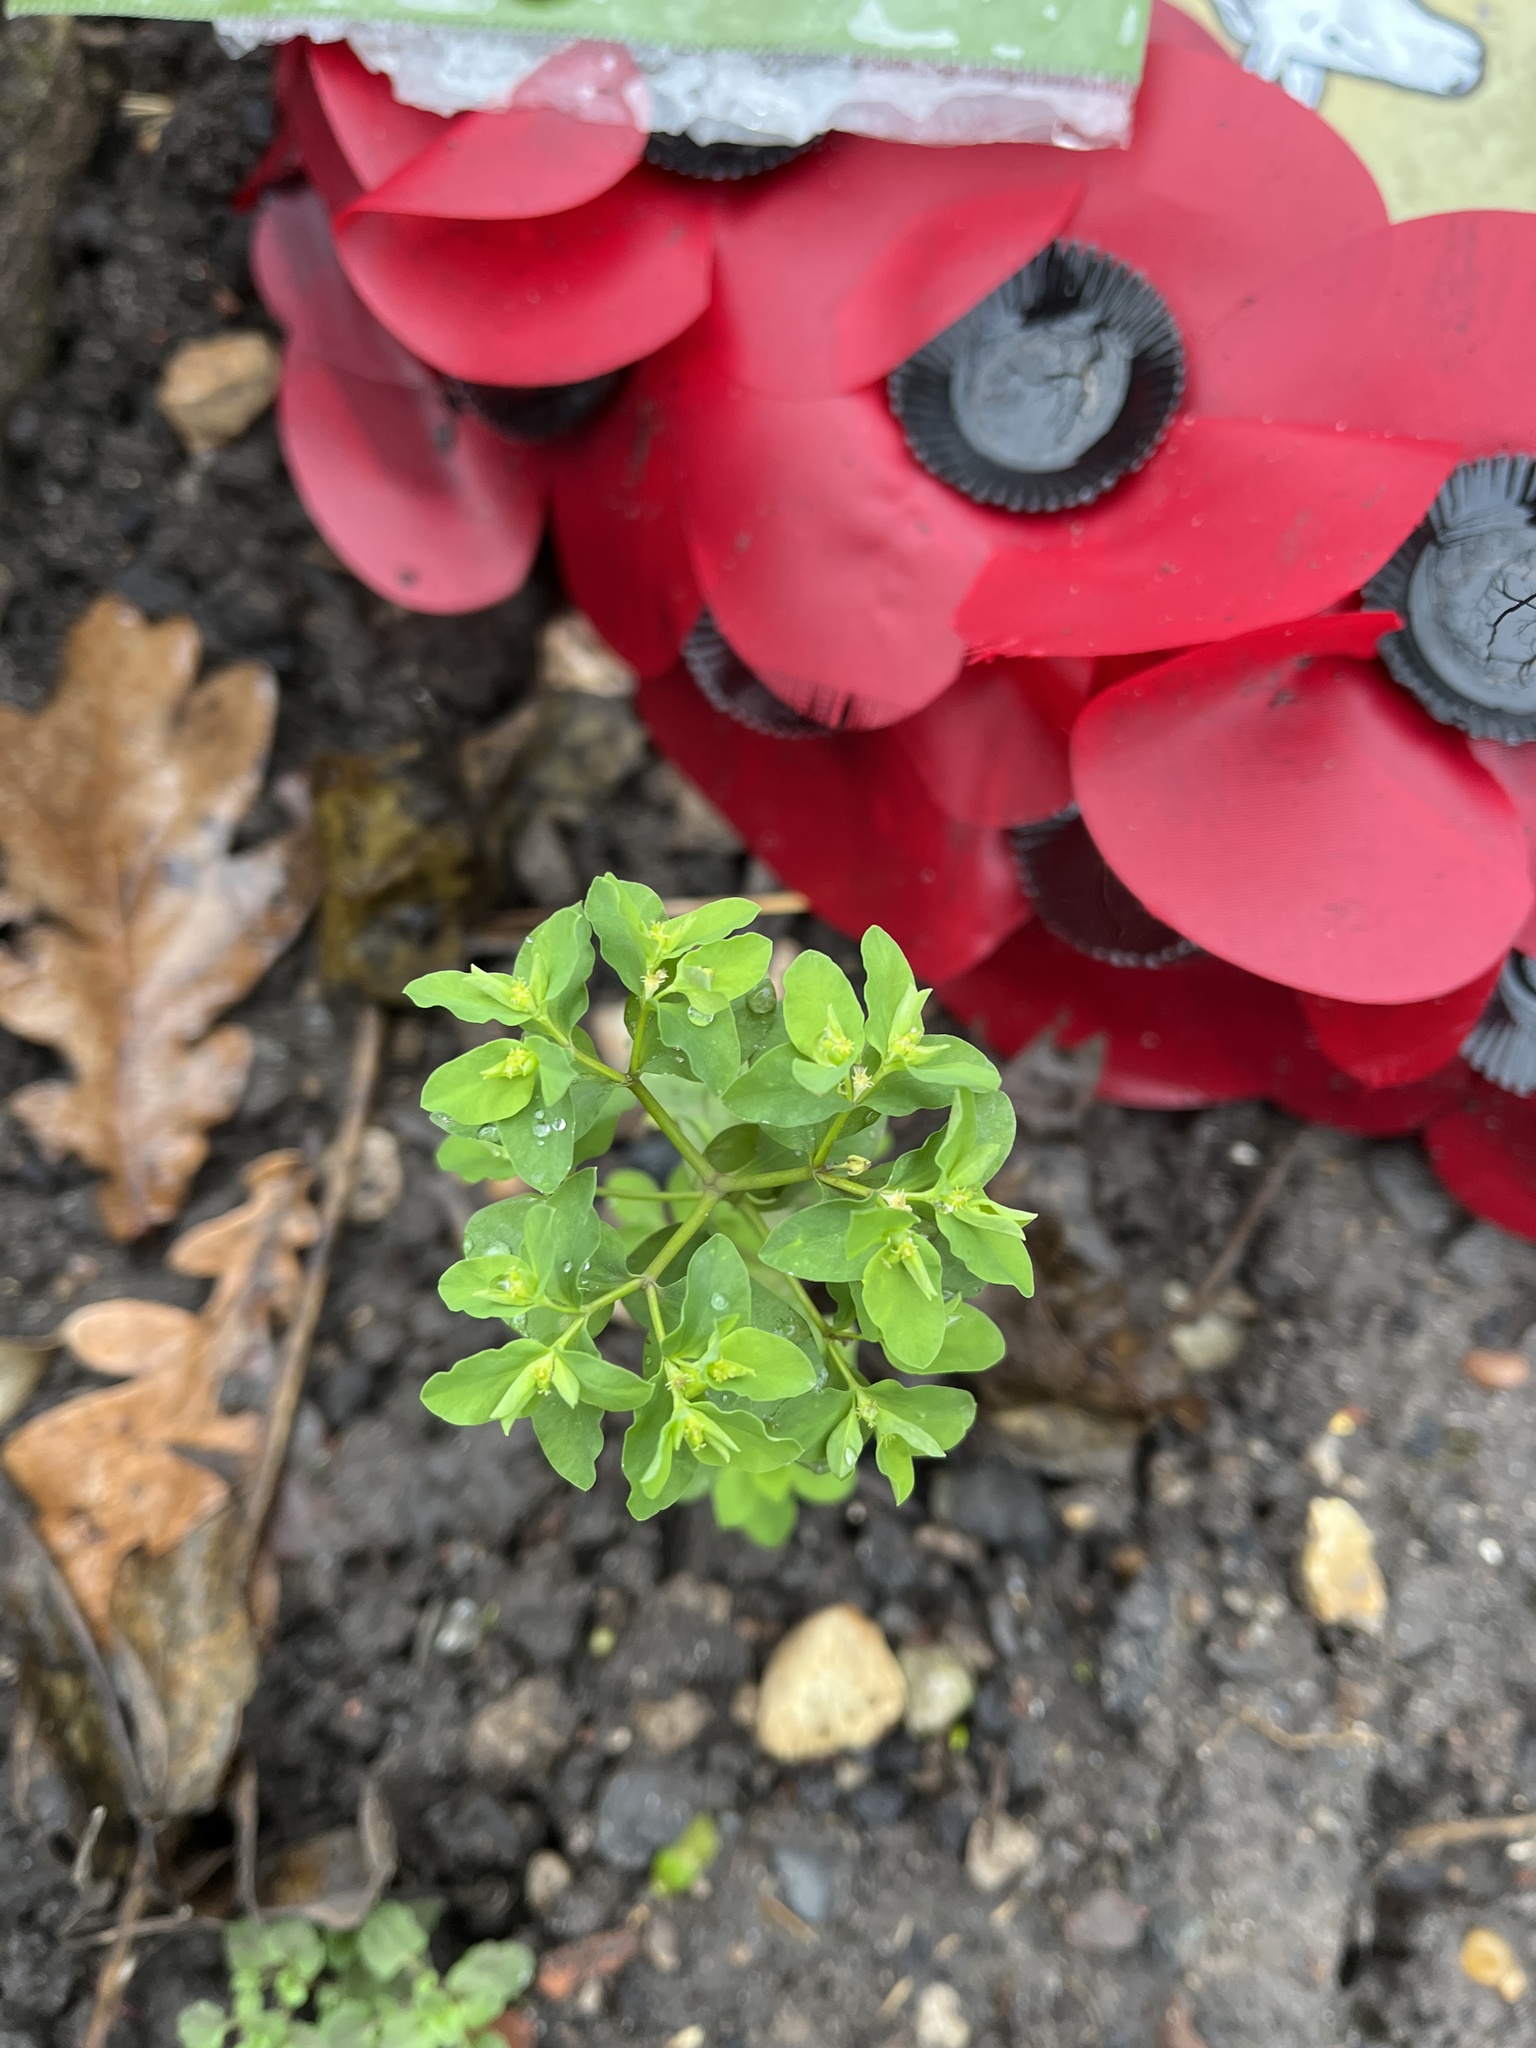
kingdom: Plantae
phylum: Tracheophyta
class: Magnoliopsida
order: Malpighiales
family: Euphorbiaceae
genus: Euphorbia
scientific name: Euphorbia peplus
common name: Petty spurge
